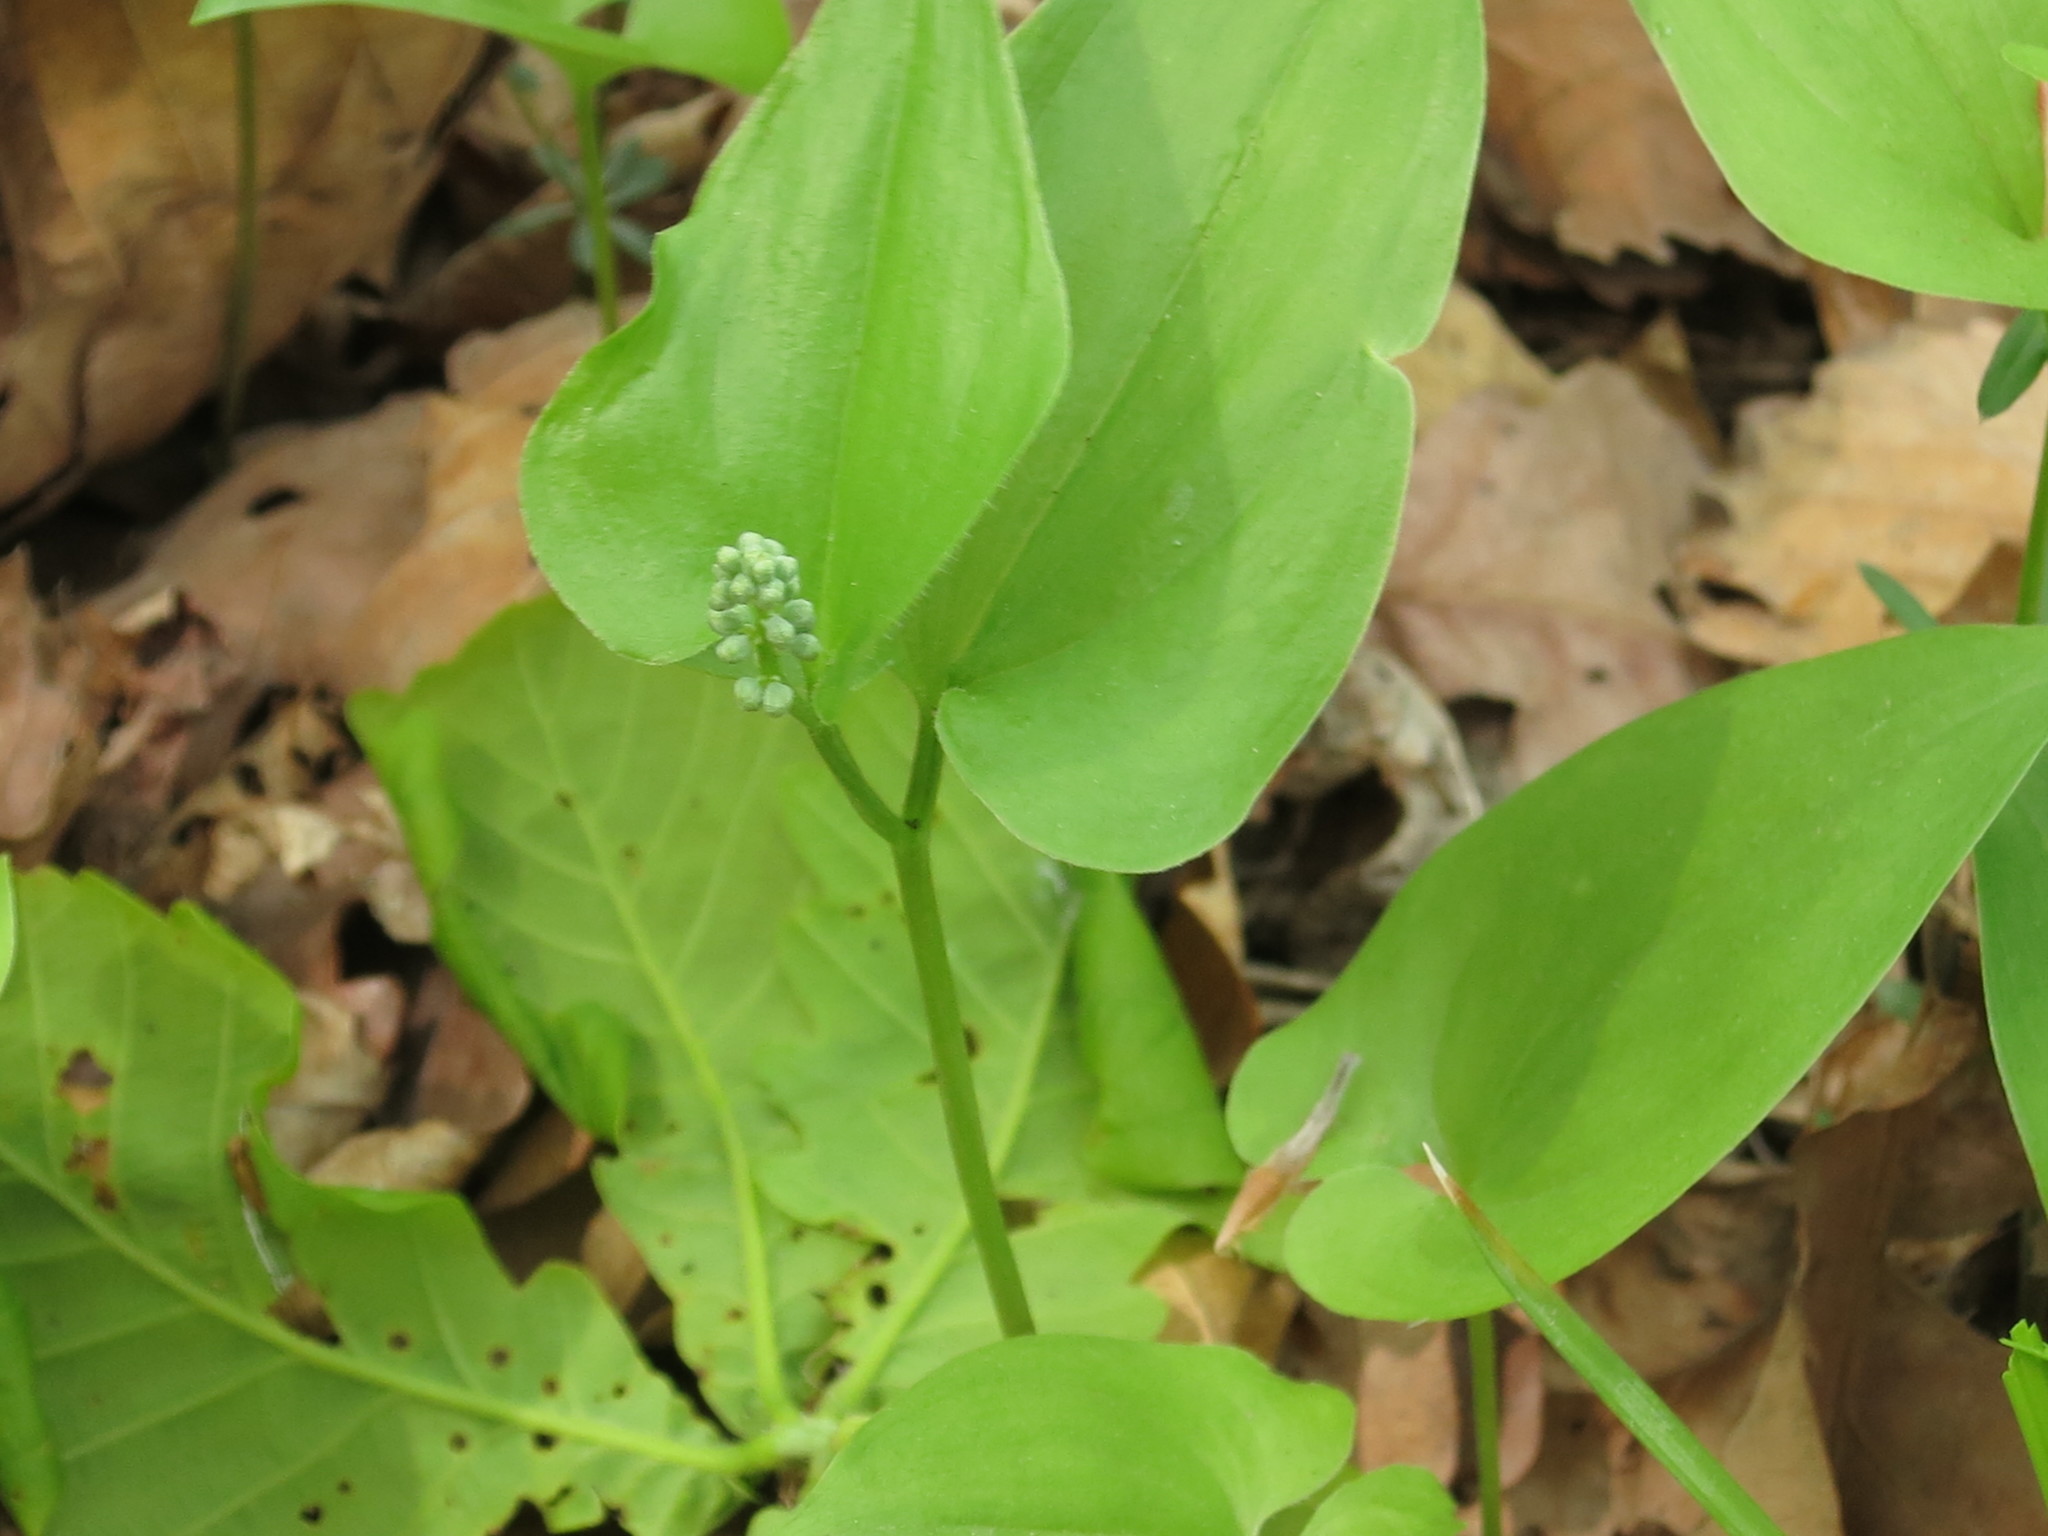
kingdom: Plantae
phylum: Tracheophyta
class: Liliopsida
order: Asparagales
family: Asparagaceae
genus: Maianthemum
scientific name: Maianthemum bifolium
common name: May lily
